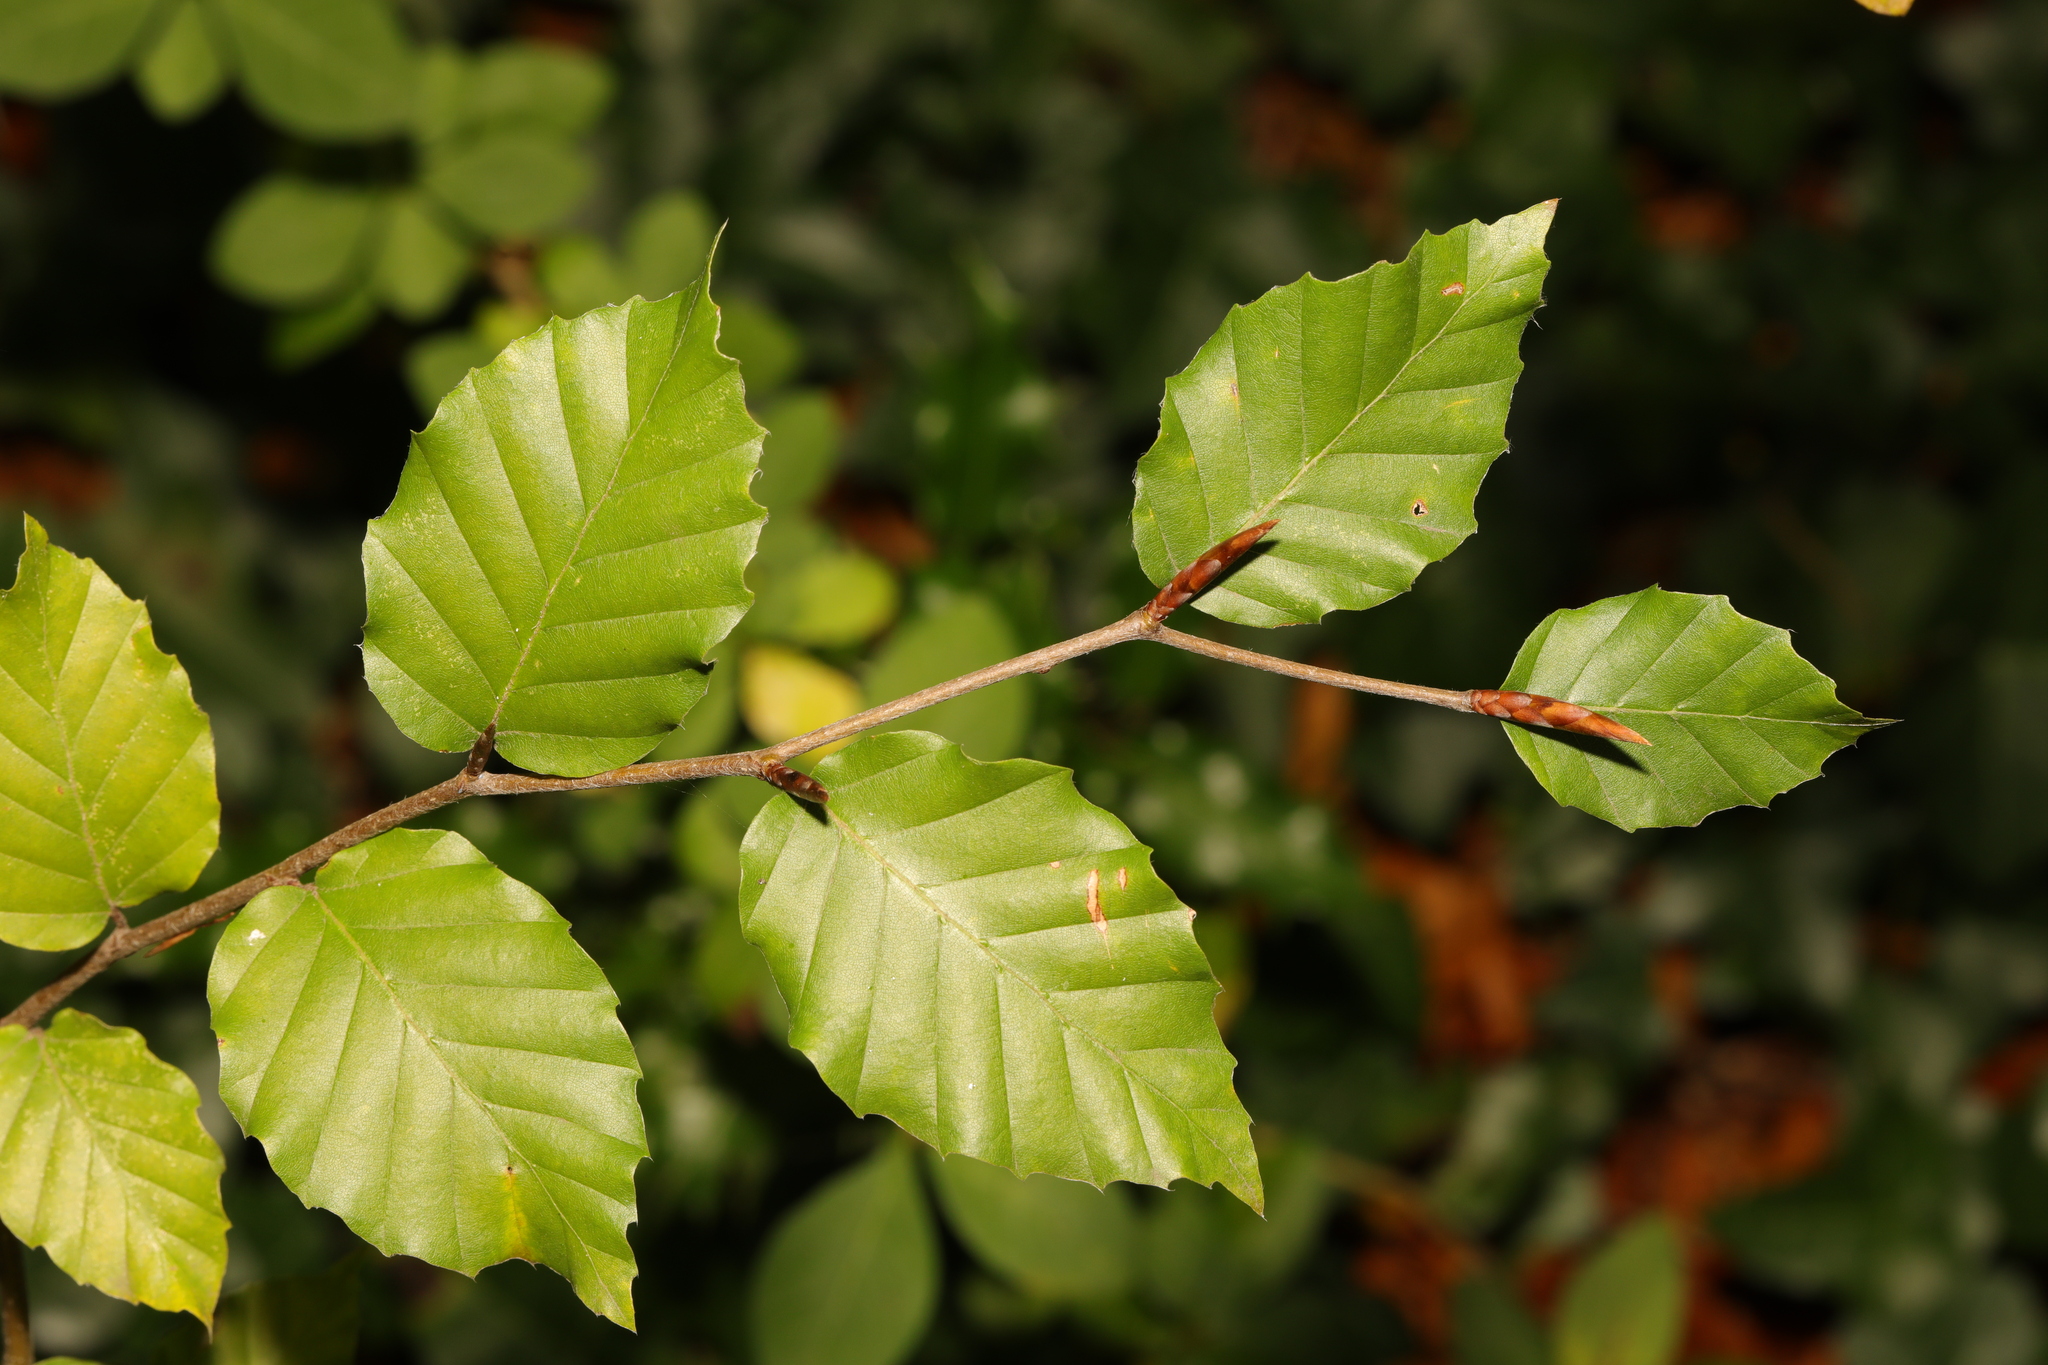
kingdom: Plantae
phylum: Tracheophyta
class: Magnoliopsida
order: Fagales
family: Fagaceae
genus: Fagus
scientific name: Fagus sylvatica
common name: Beech
